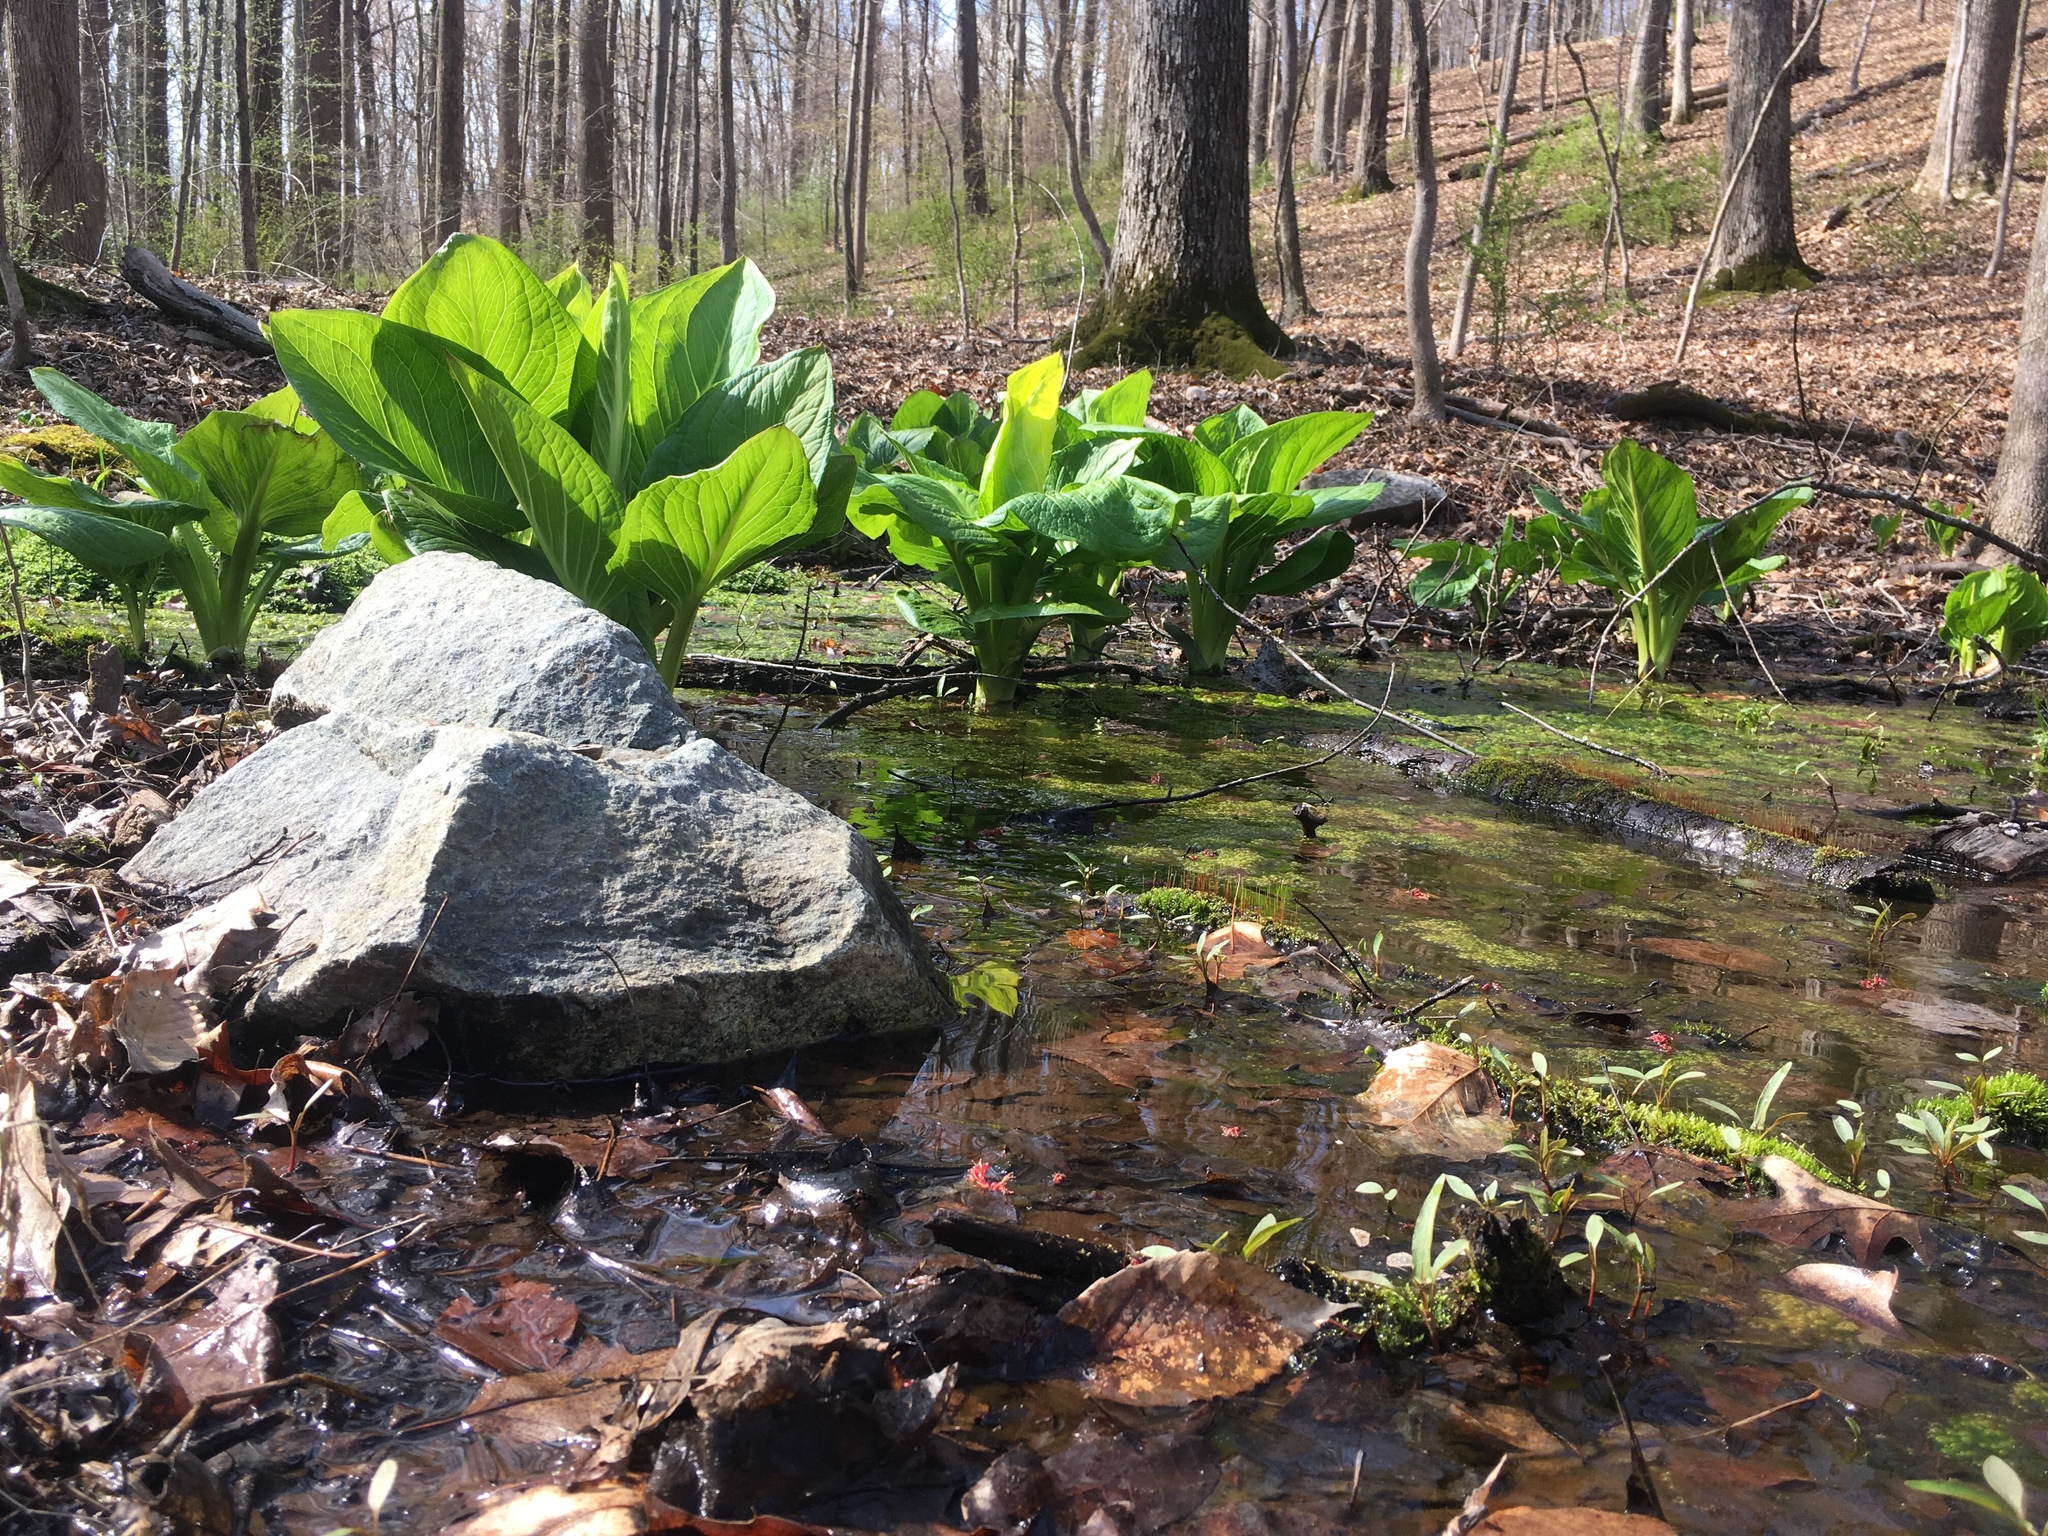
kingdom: Plantae
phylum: Tracheophyta
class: Liliopsida
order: Alismatales
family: Araceae
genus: Symplocarpus
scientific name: Symplocarpus foetidus
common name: Eastern skunk cabbage
